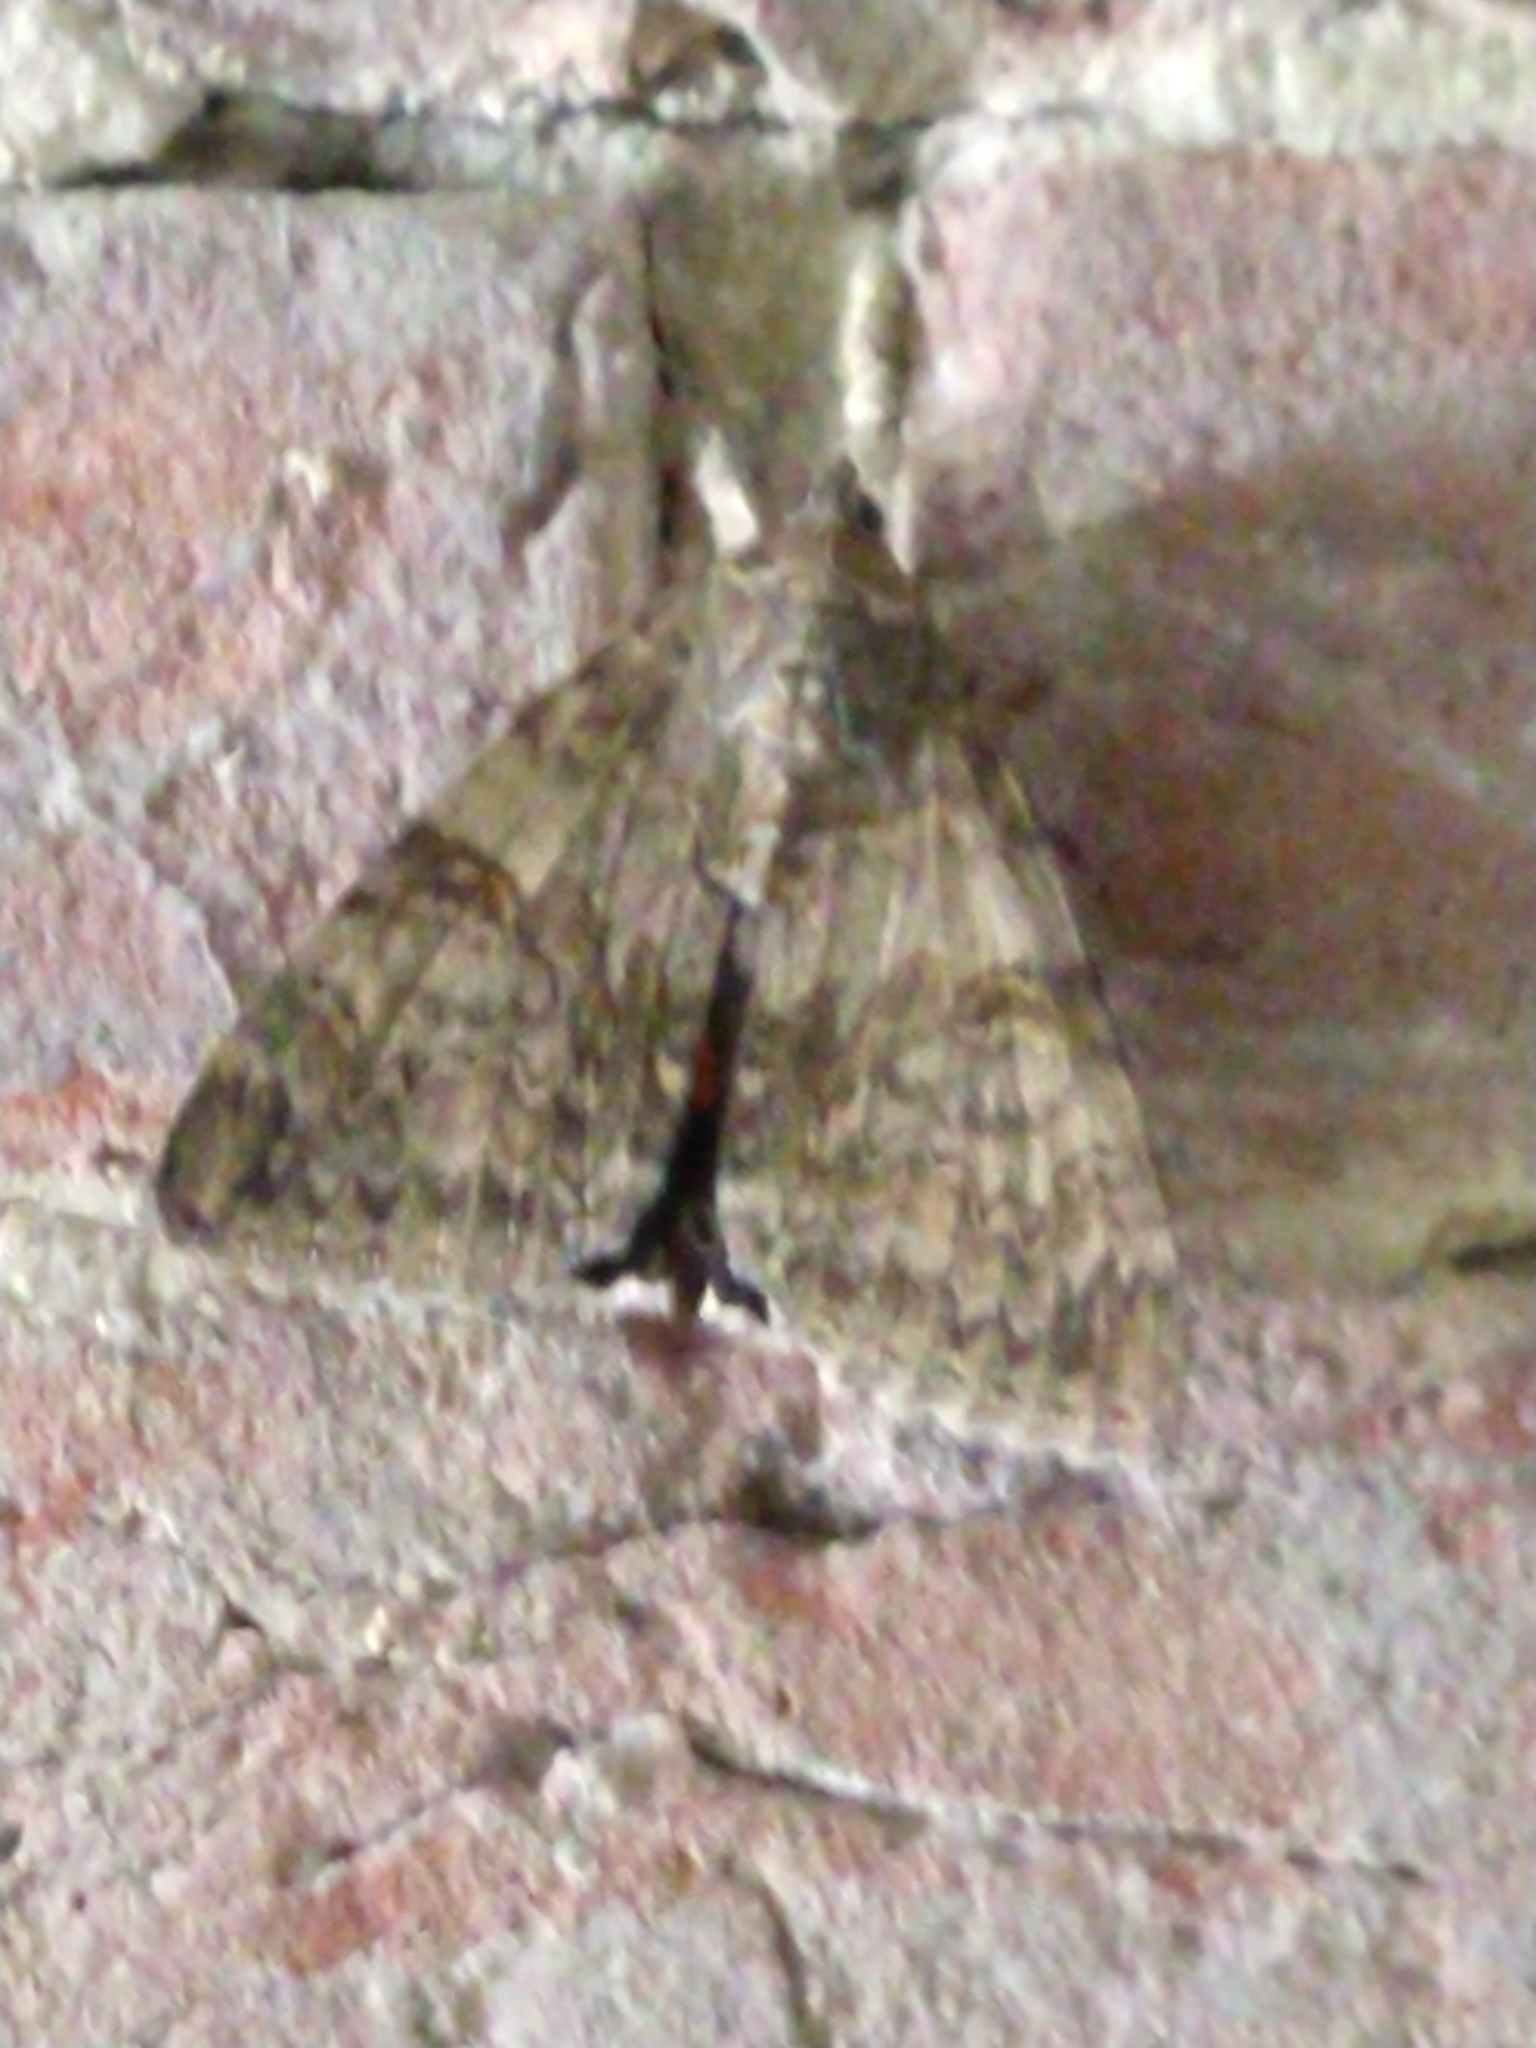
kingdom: Animalia
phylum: Arthropoda
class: Insecta
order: Lepidoptera
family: Erebidae
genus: Catocala
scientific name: Catocala nupta
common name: Red underwing
